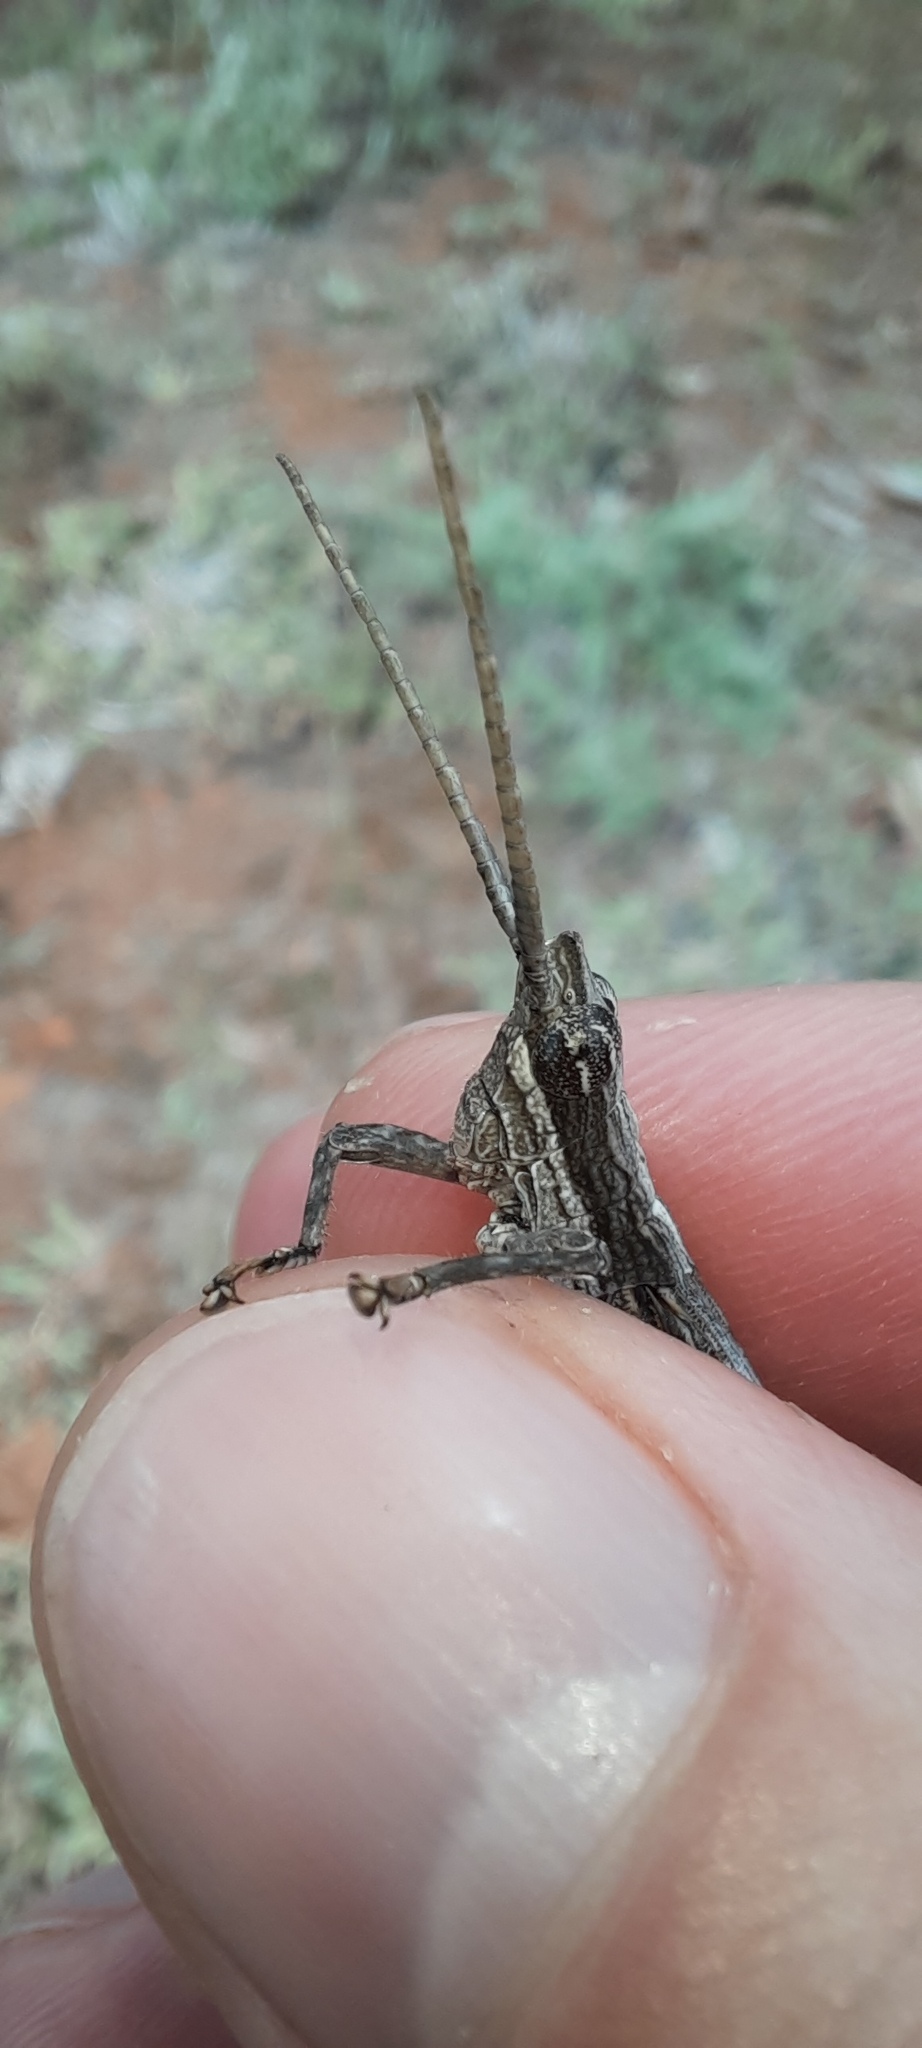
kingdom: Animalia
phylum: Arthropoda
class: Insecta
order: Orthoptera
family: Acrididae
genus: Coryphistes
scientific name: Coryphistes ruricola
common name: Bark-mimicking grasshopper
